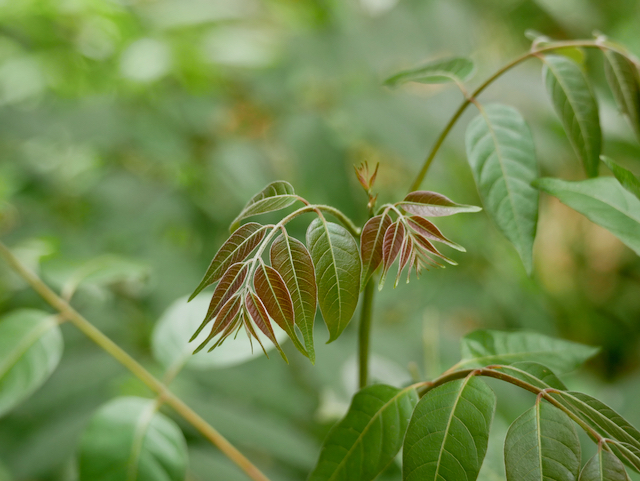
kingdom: Plantae
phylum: Tracheophyta
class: Magnoliopsida
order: Sapindales
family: Meliaceae
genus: Toona
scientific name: Toona ciliata
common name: Australian redcedar
